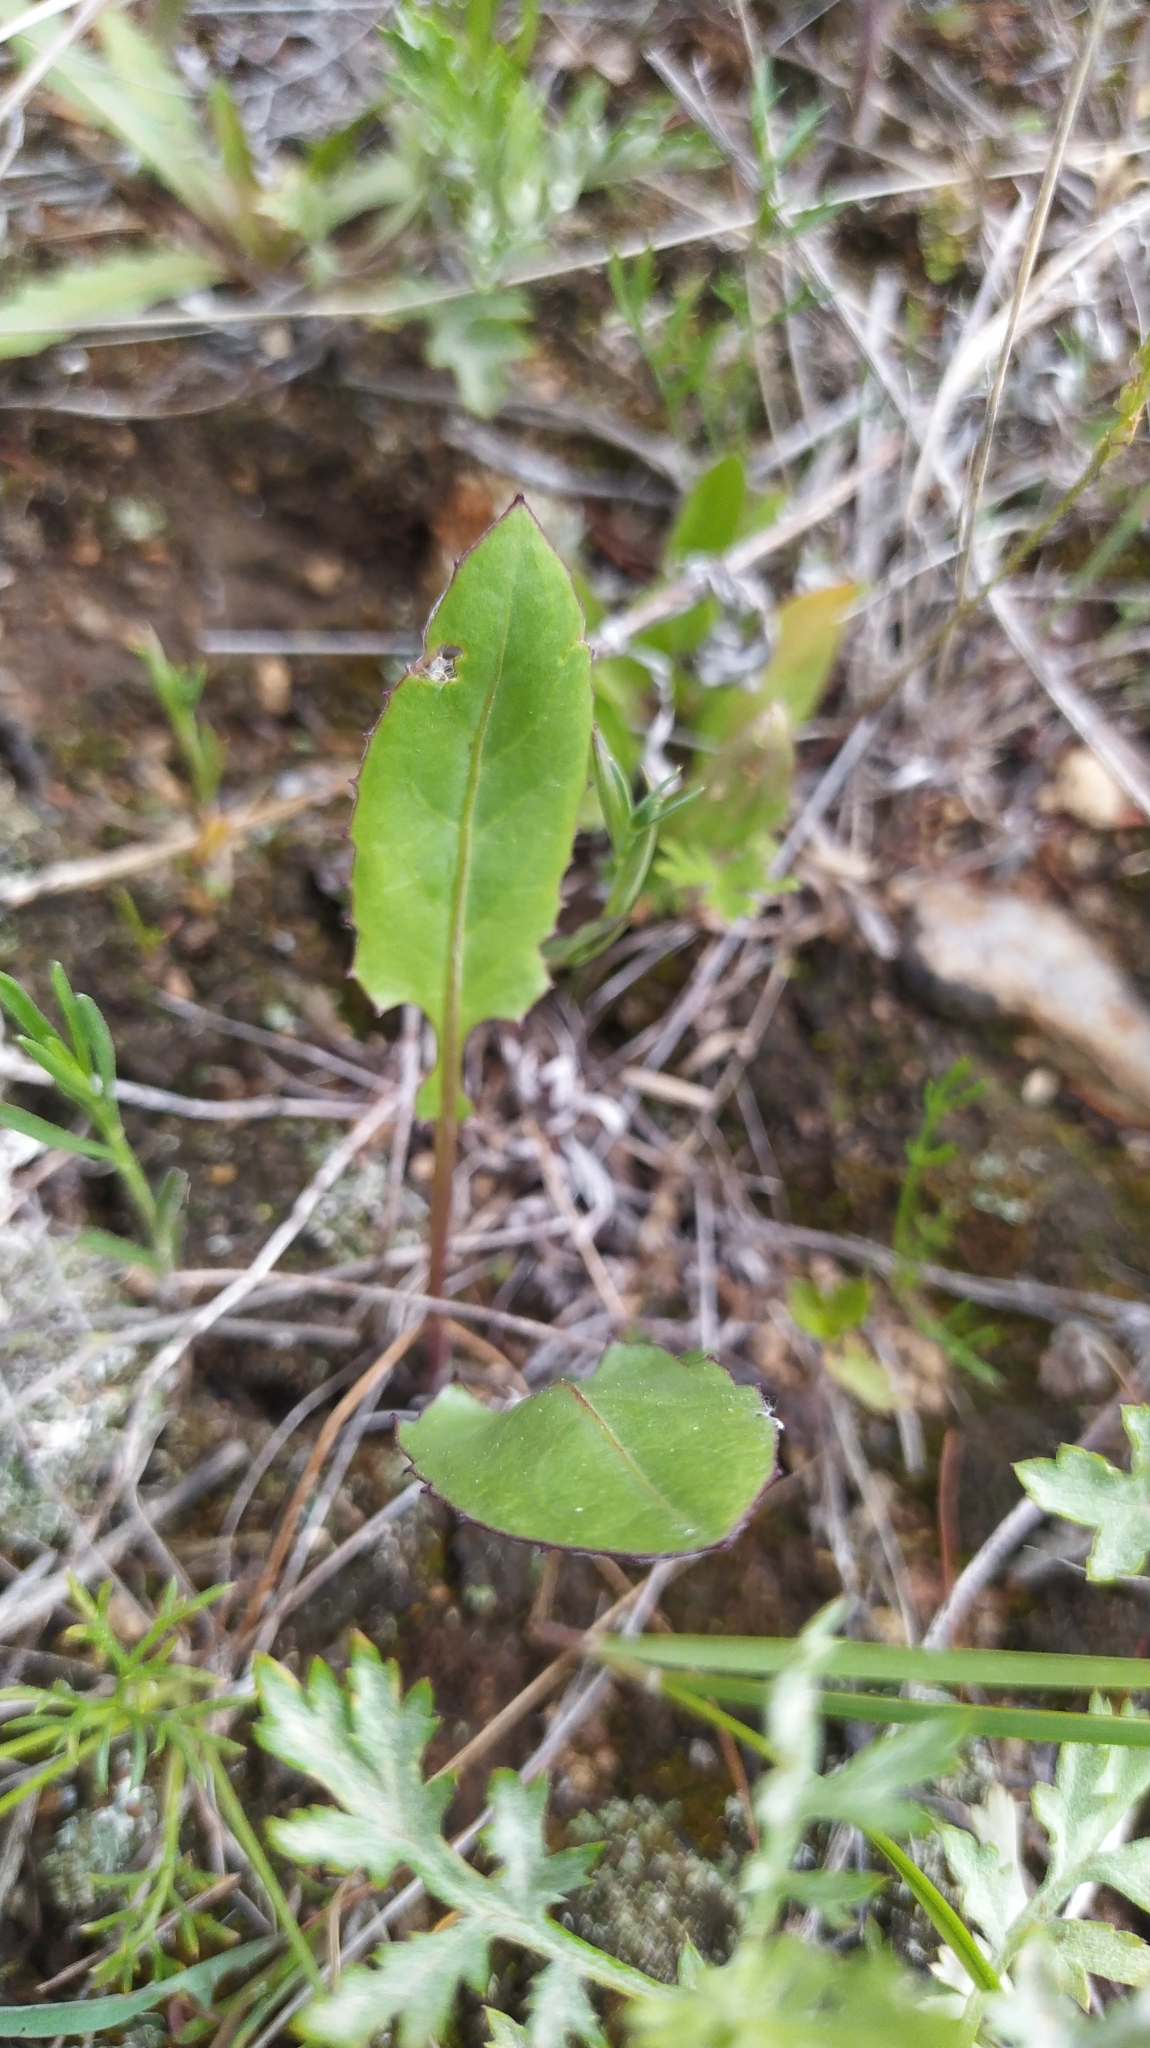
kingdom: Plantae
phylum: Tracheophyta
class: Magnoliopsida
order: Asterales
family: Asteraceae
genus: Leibnitzia
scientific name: Leibnitzia anandria
